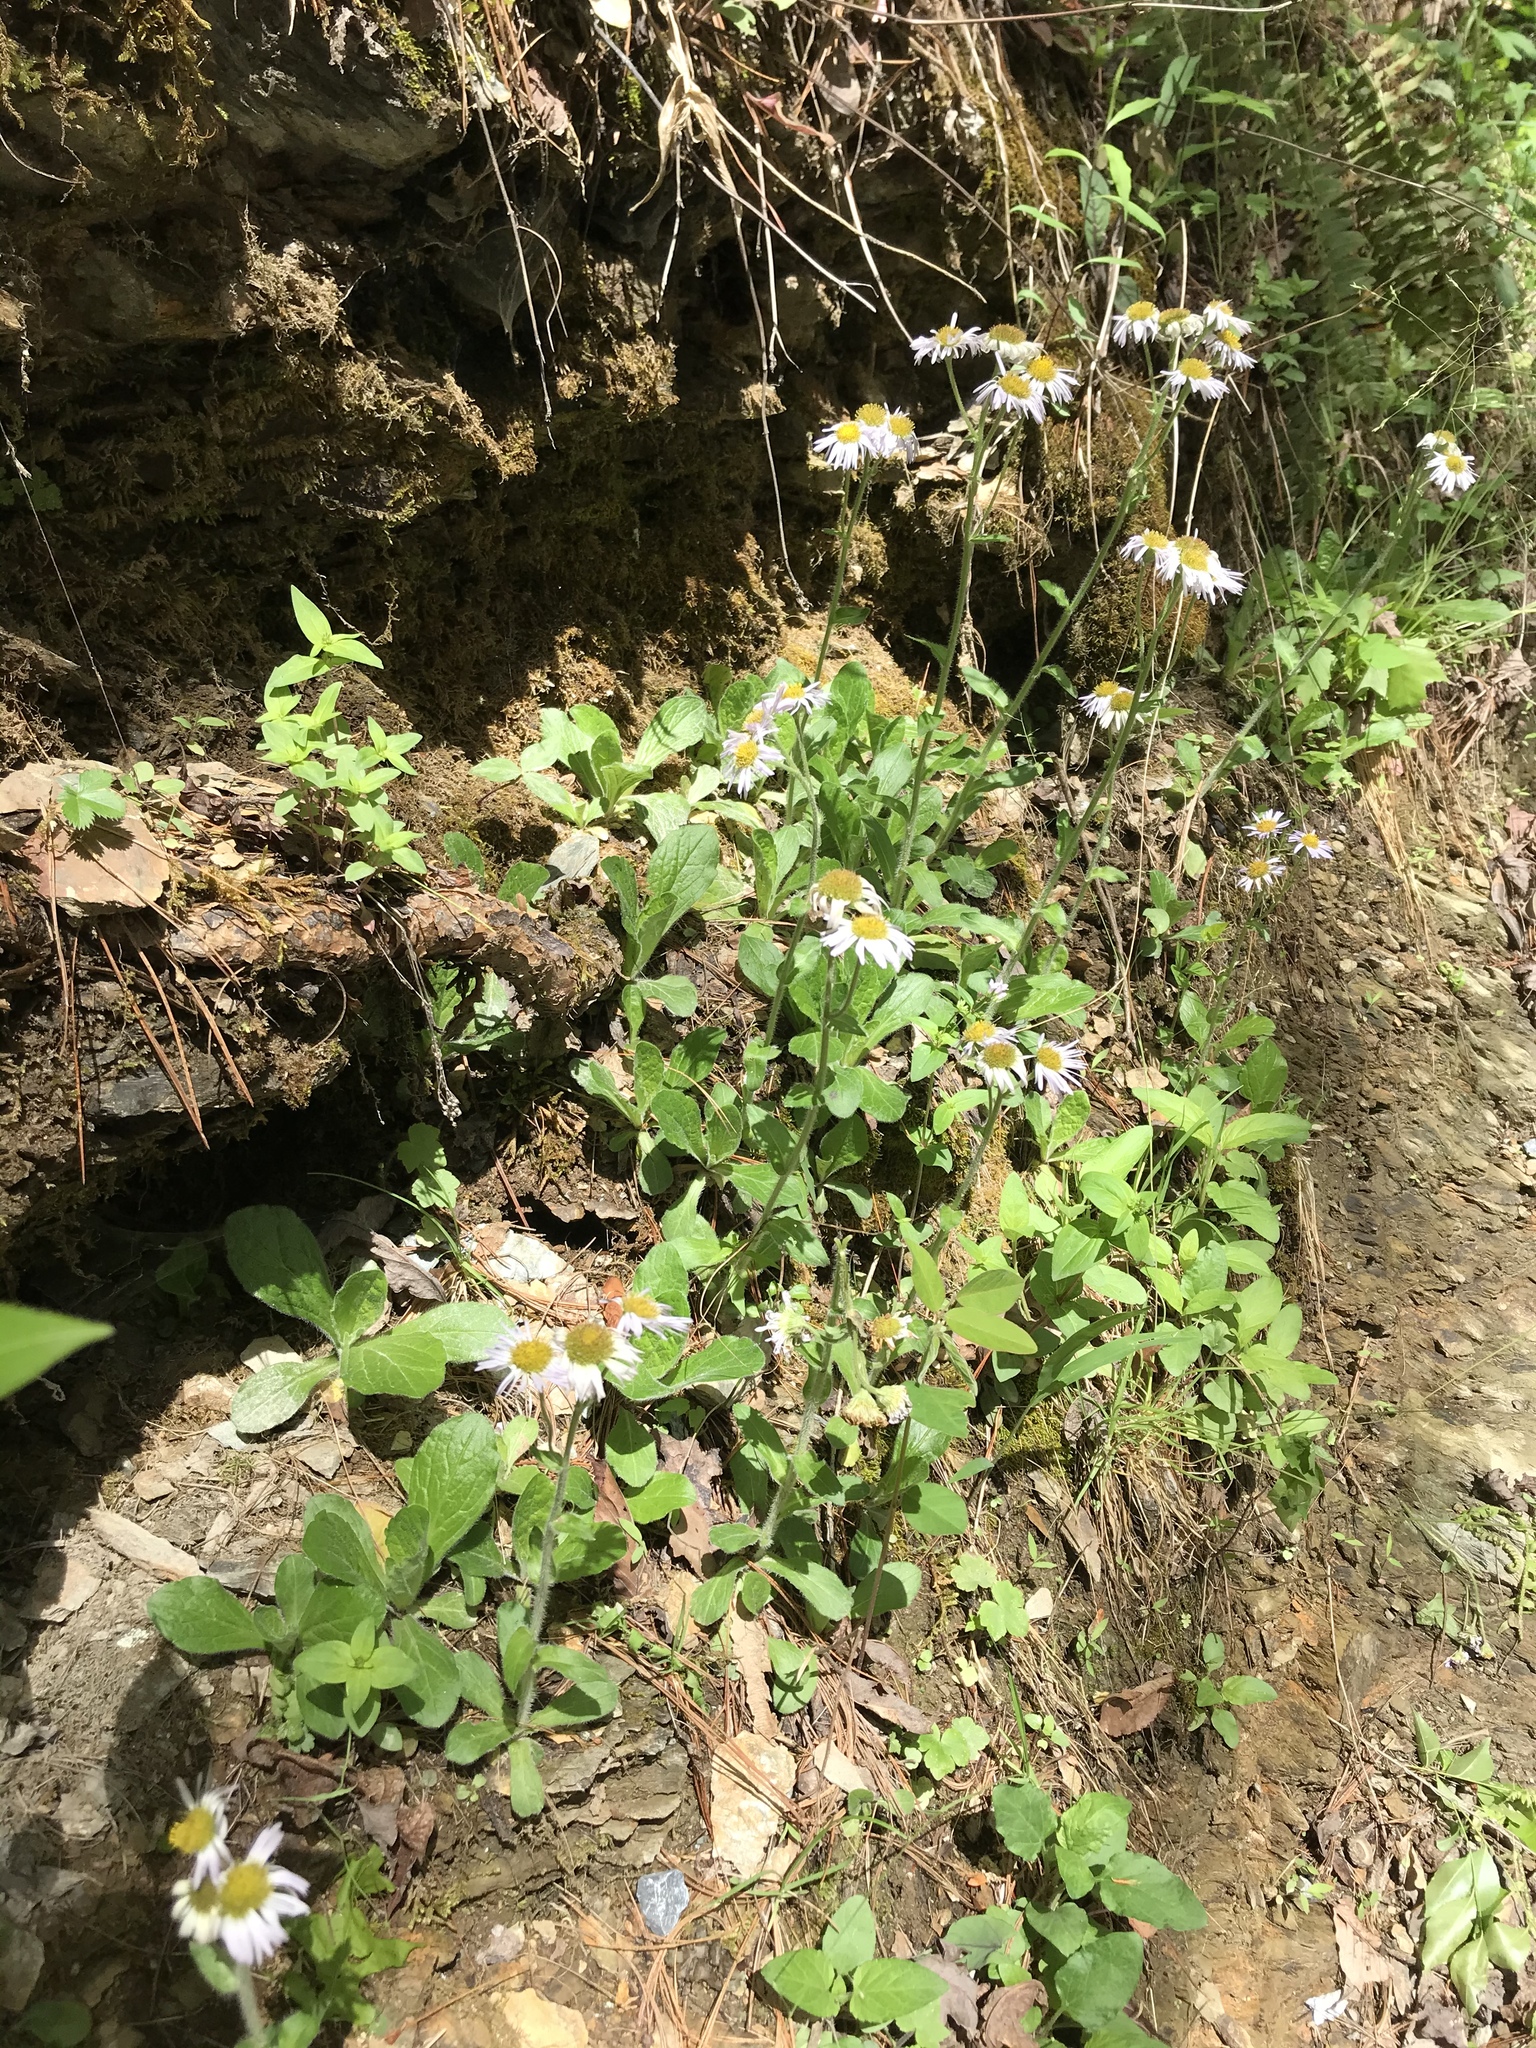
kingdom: Plantae
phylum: Tracheophyta
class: Magnoliopsida
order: Asterales
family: Asteraceae
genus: Erigeron
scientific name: Erigeron pulchellus
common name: Hairy fleabane
